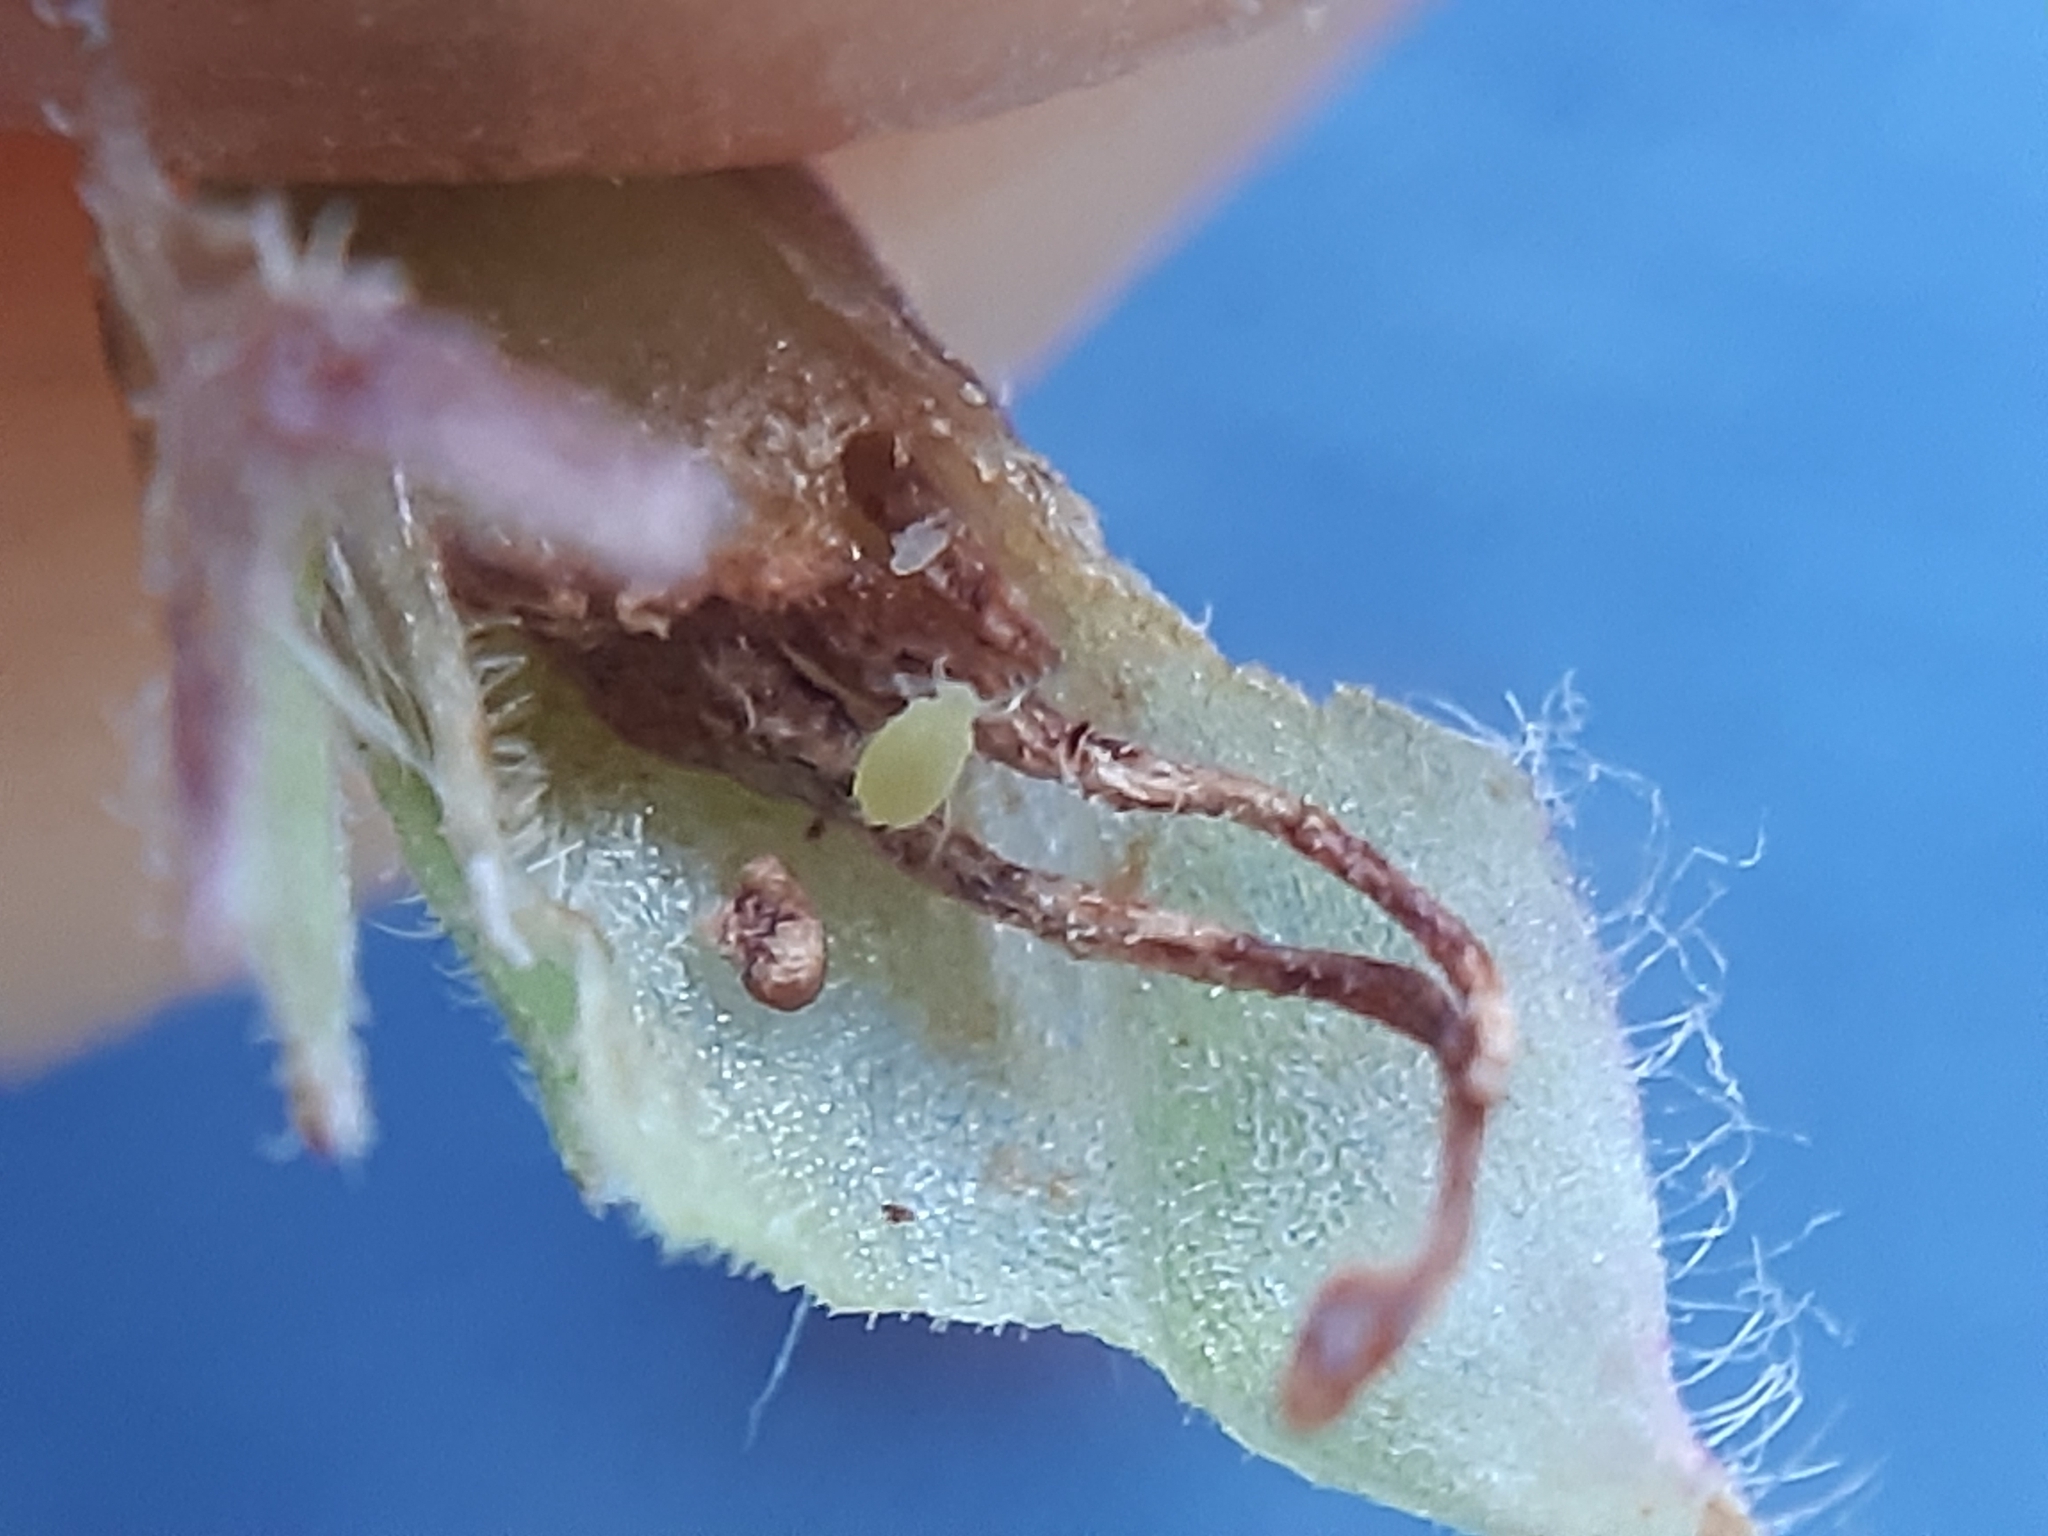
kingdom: Animalia
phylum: Arthropoda
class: Insecta
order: Hemiptera
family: Tingidae
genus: Copium
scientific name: Copium clavicorne
